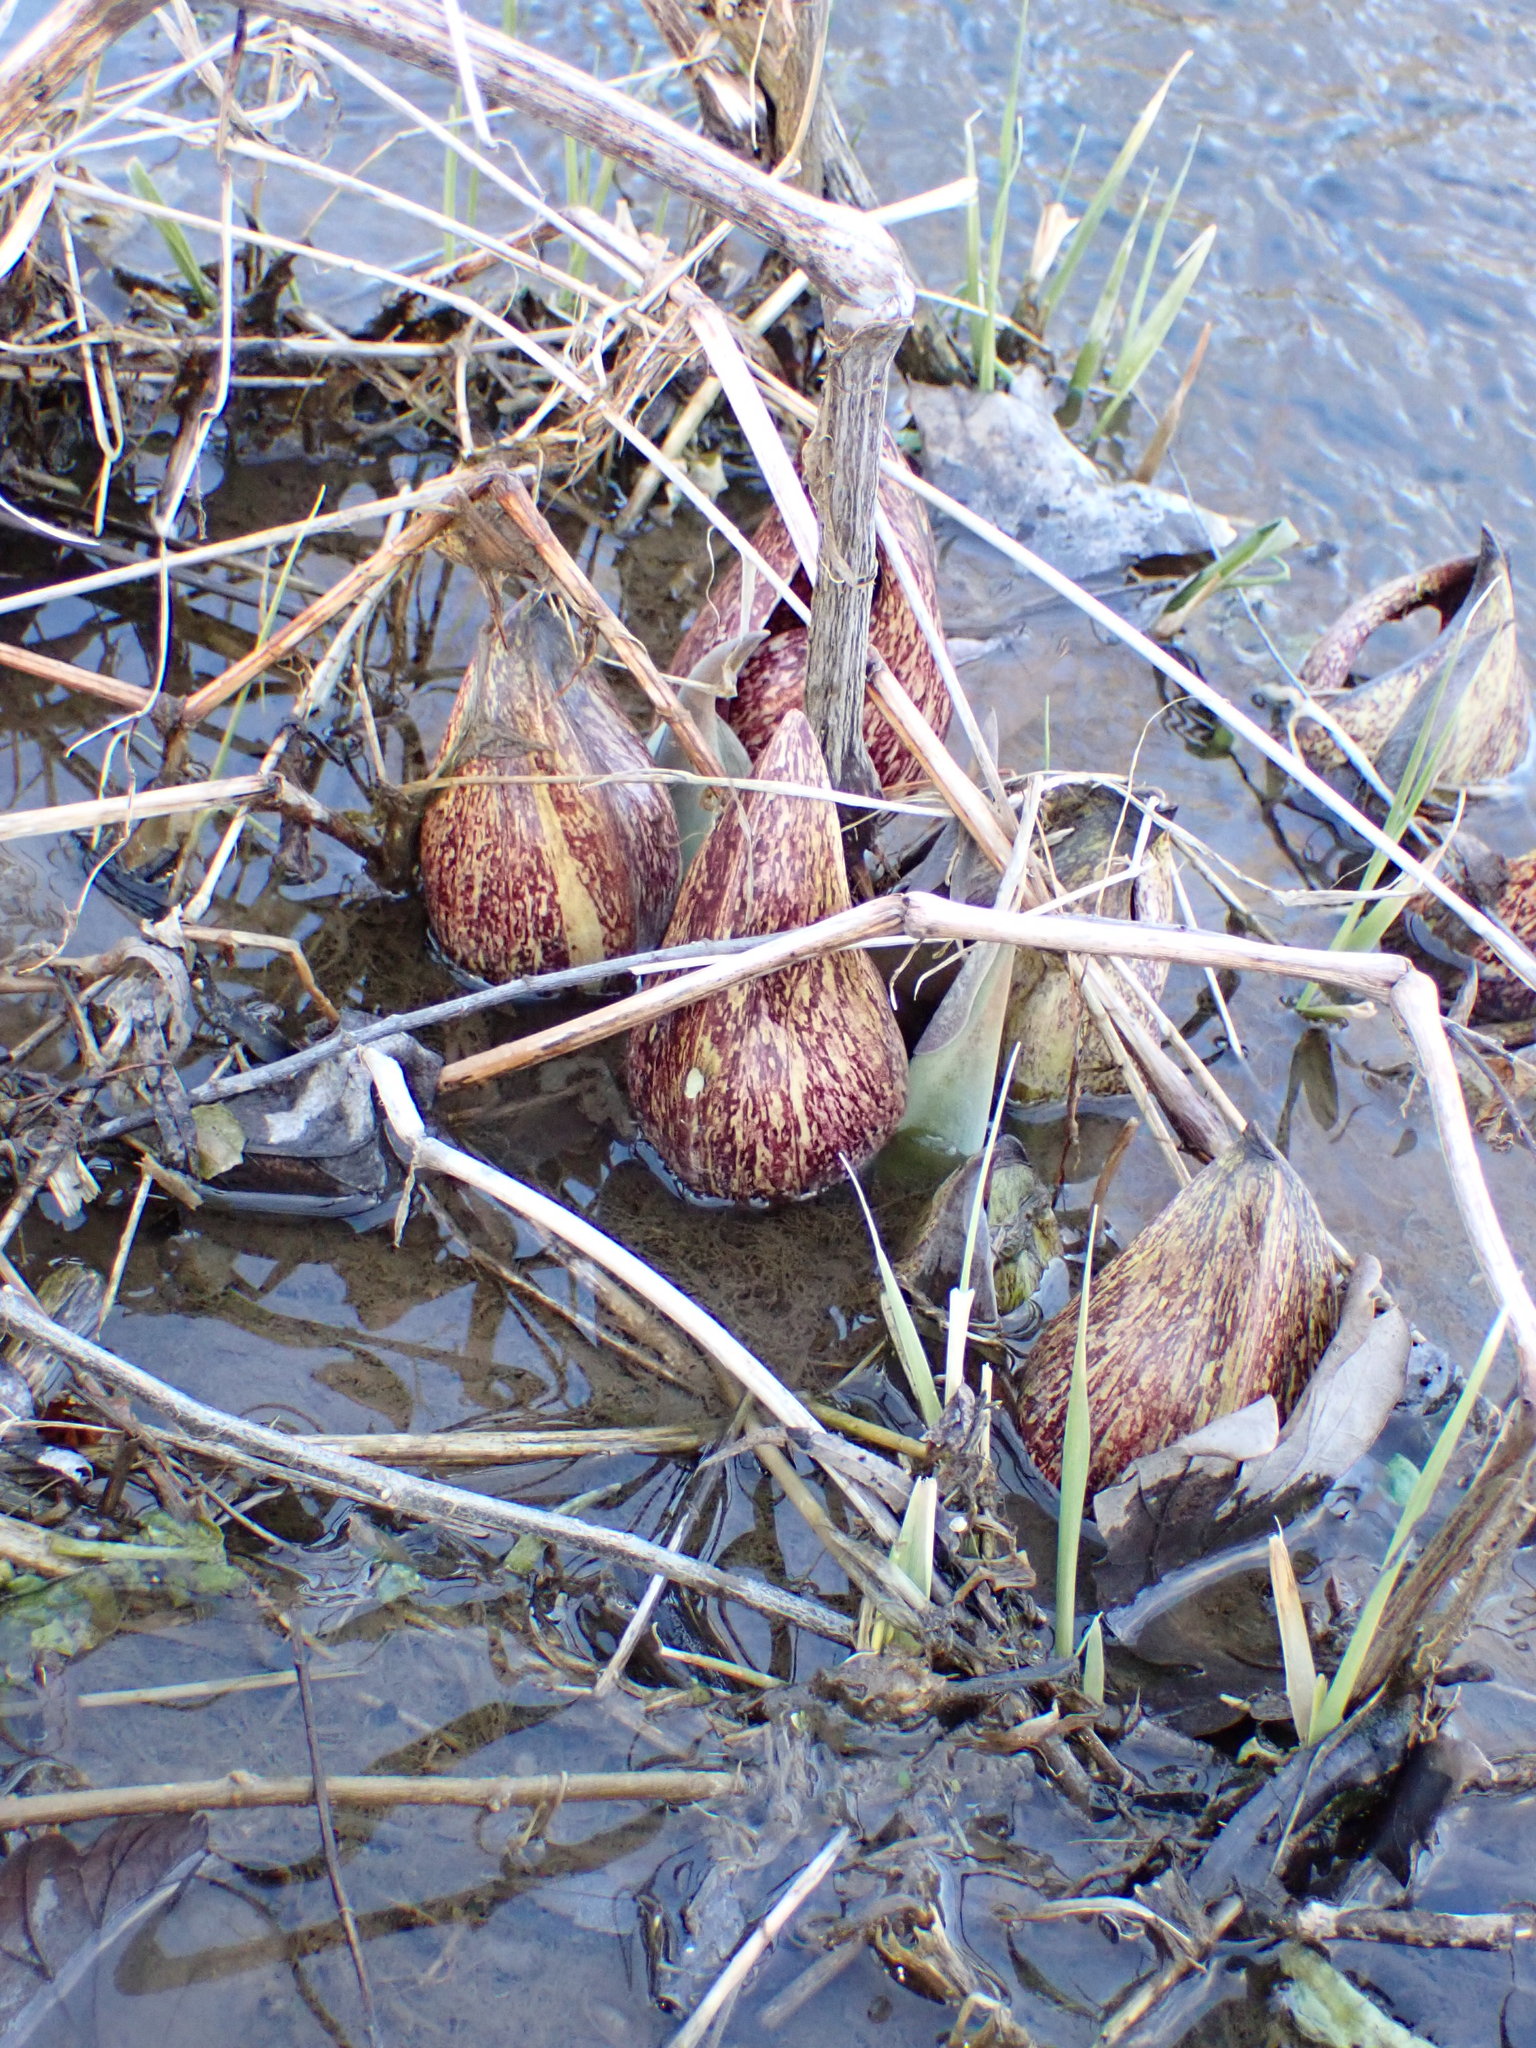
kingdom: Plantae
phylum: Tracheophyta
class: Liliopsida
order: Alismatales
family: Araceae
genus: Symplocarpus
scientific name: Symplocarpus foetidus
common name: Eastern skunk cabbage
